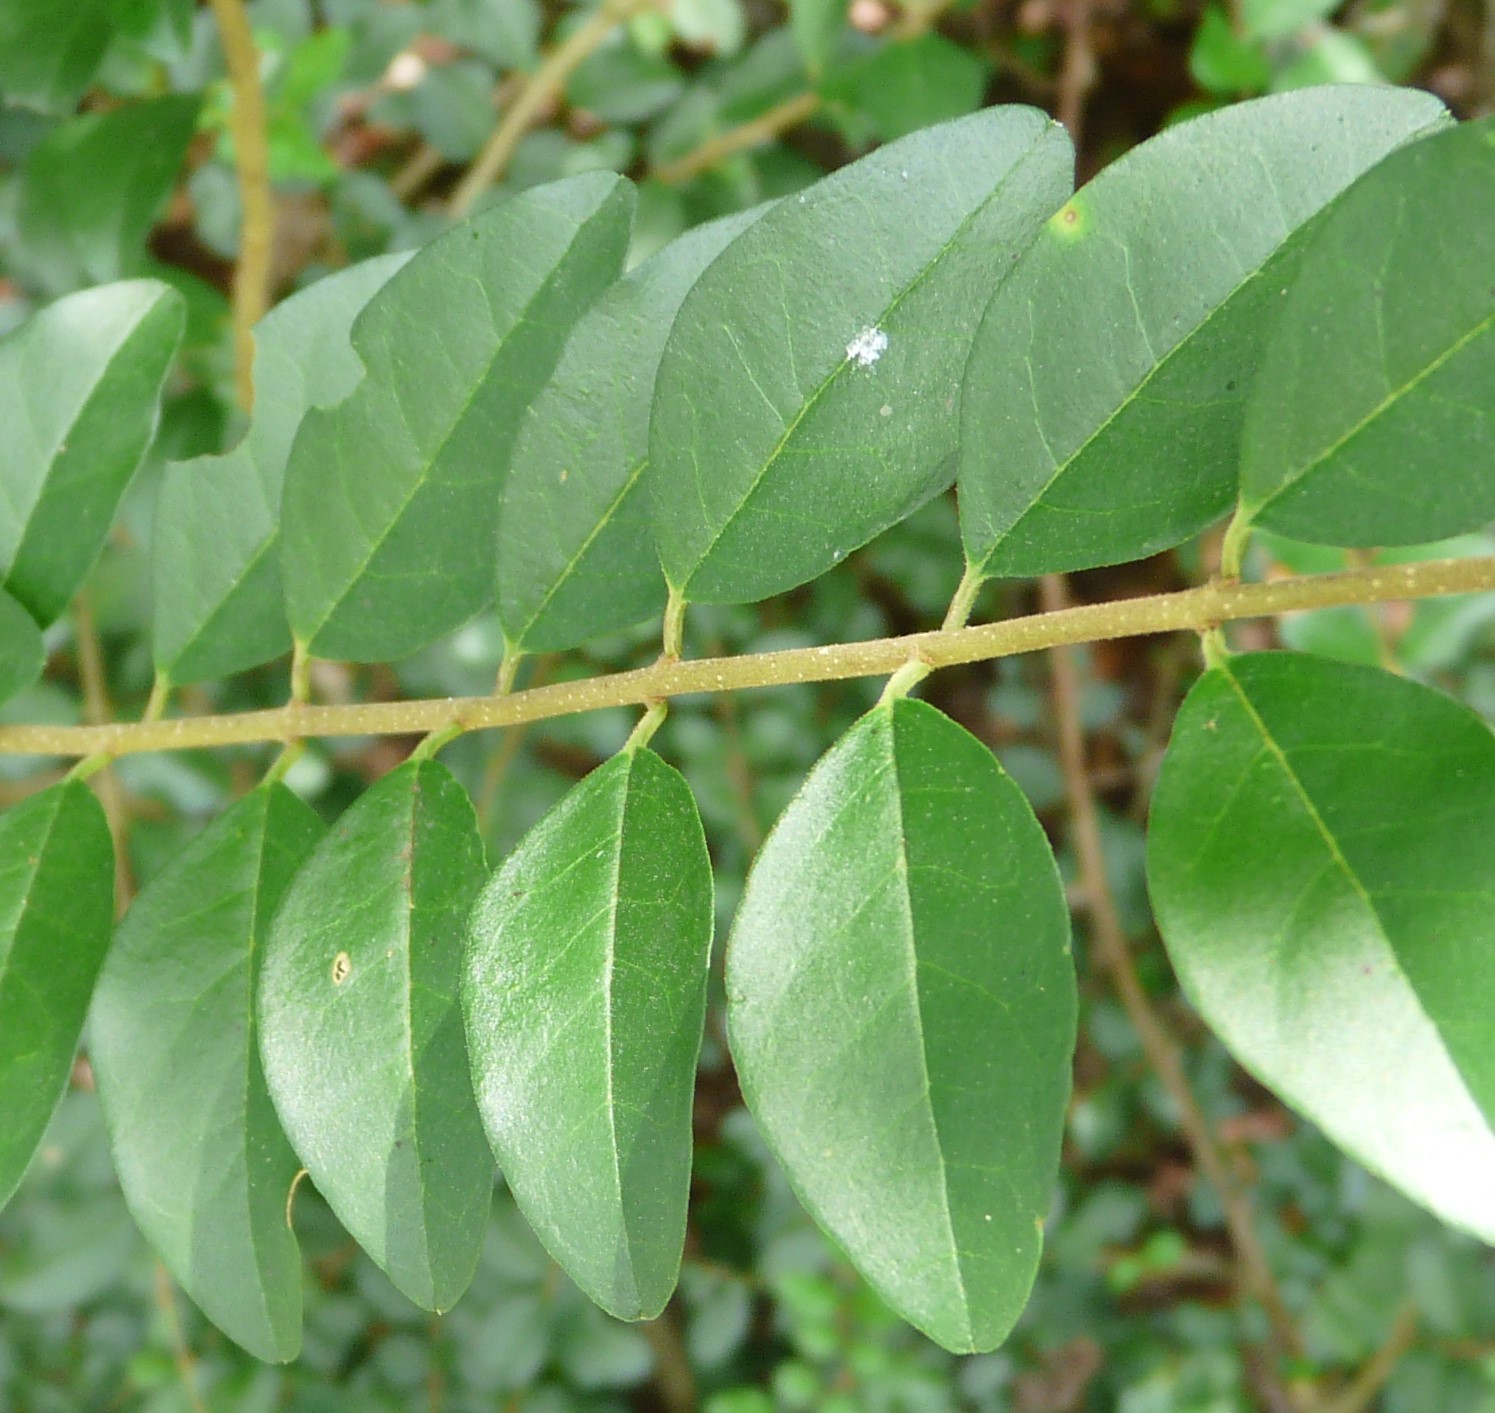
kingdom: Plantae
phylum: Tracheophyta
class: Magnoliopsida
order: Lamiales
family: Oleaceae
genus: Ligustrum
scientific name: Ligustrum sinense
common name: Chinese privet
